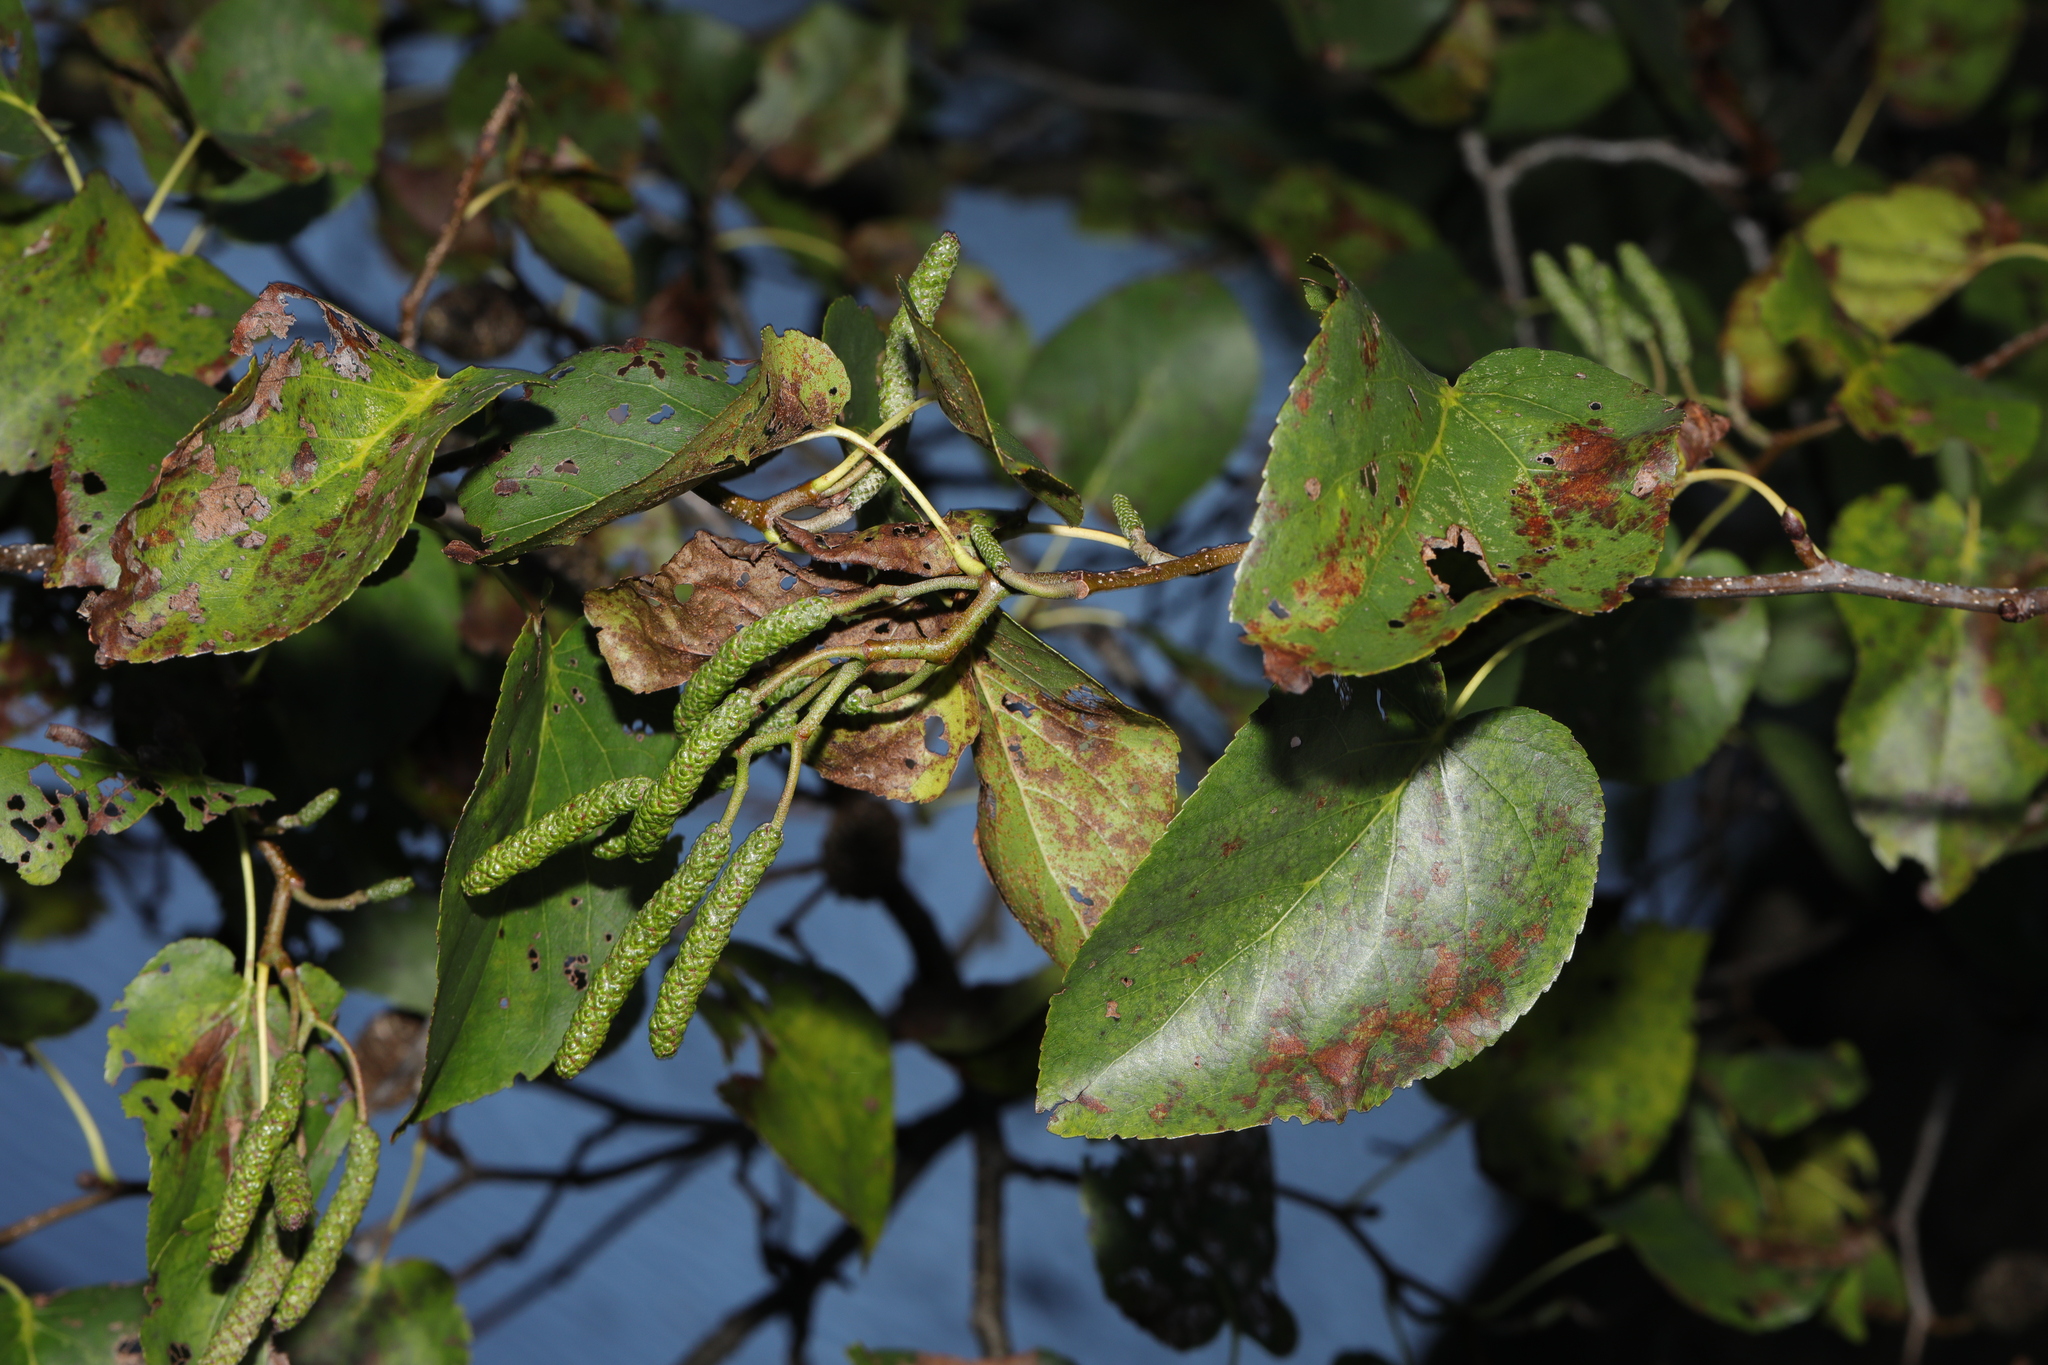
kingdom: Plantae
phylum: Tracheophyta
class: Magnoliopsida
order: Fagales
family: Betulaceae
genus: Alnus
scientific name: Alnus cordata
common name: Italian alder
